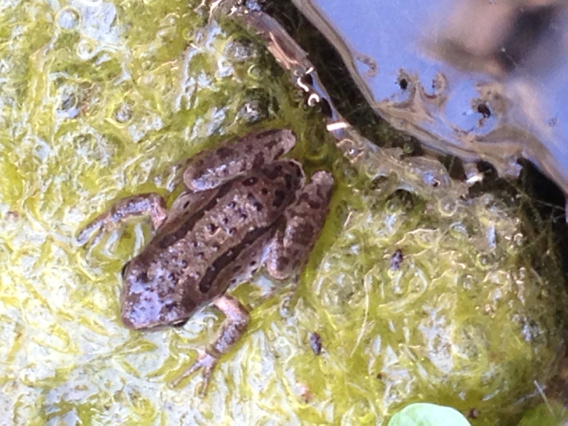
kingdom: Animalia
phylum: Chordata
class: Amphibia
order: Anura
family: Hylidae
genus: Pseudacris
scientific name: Pseudacris regilla
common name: Pacific chorus frog
